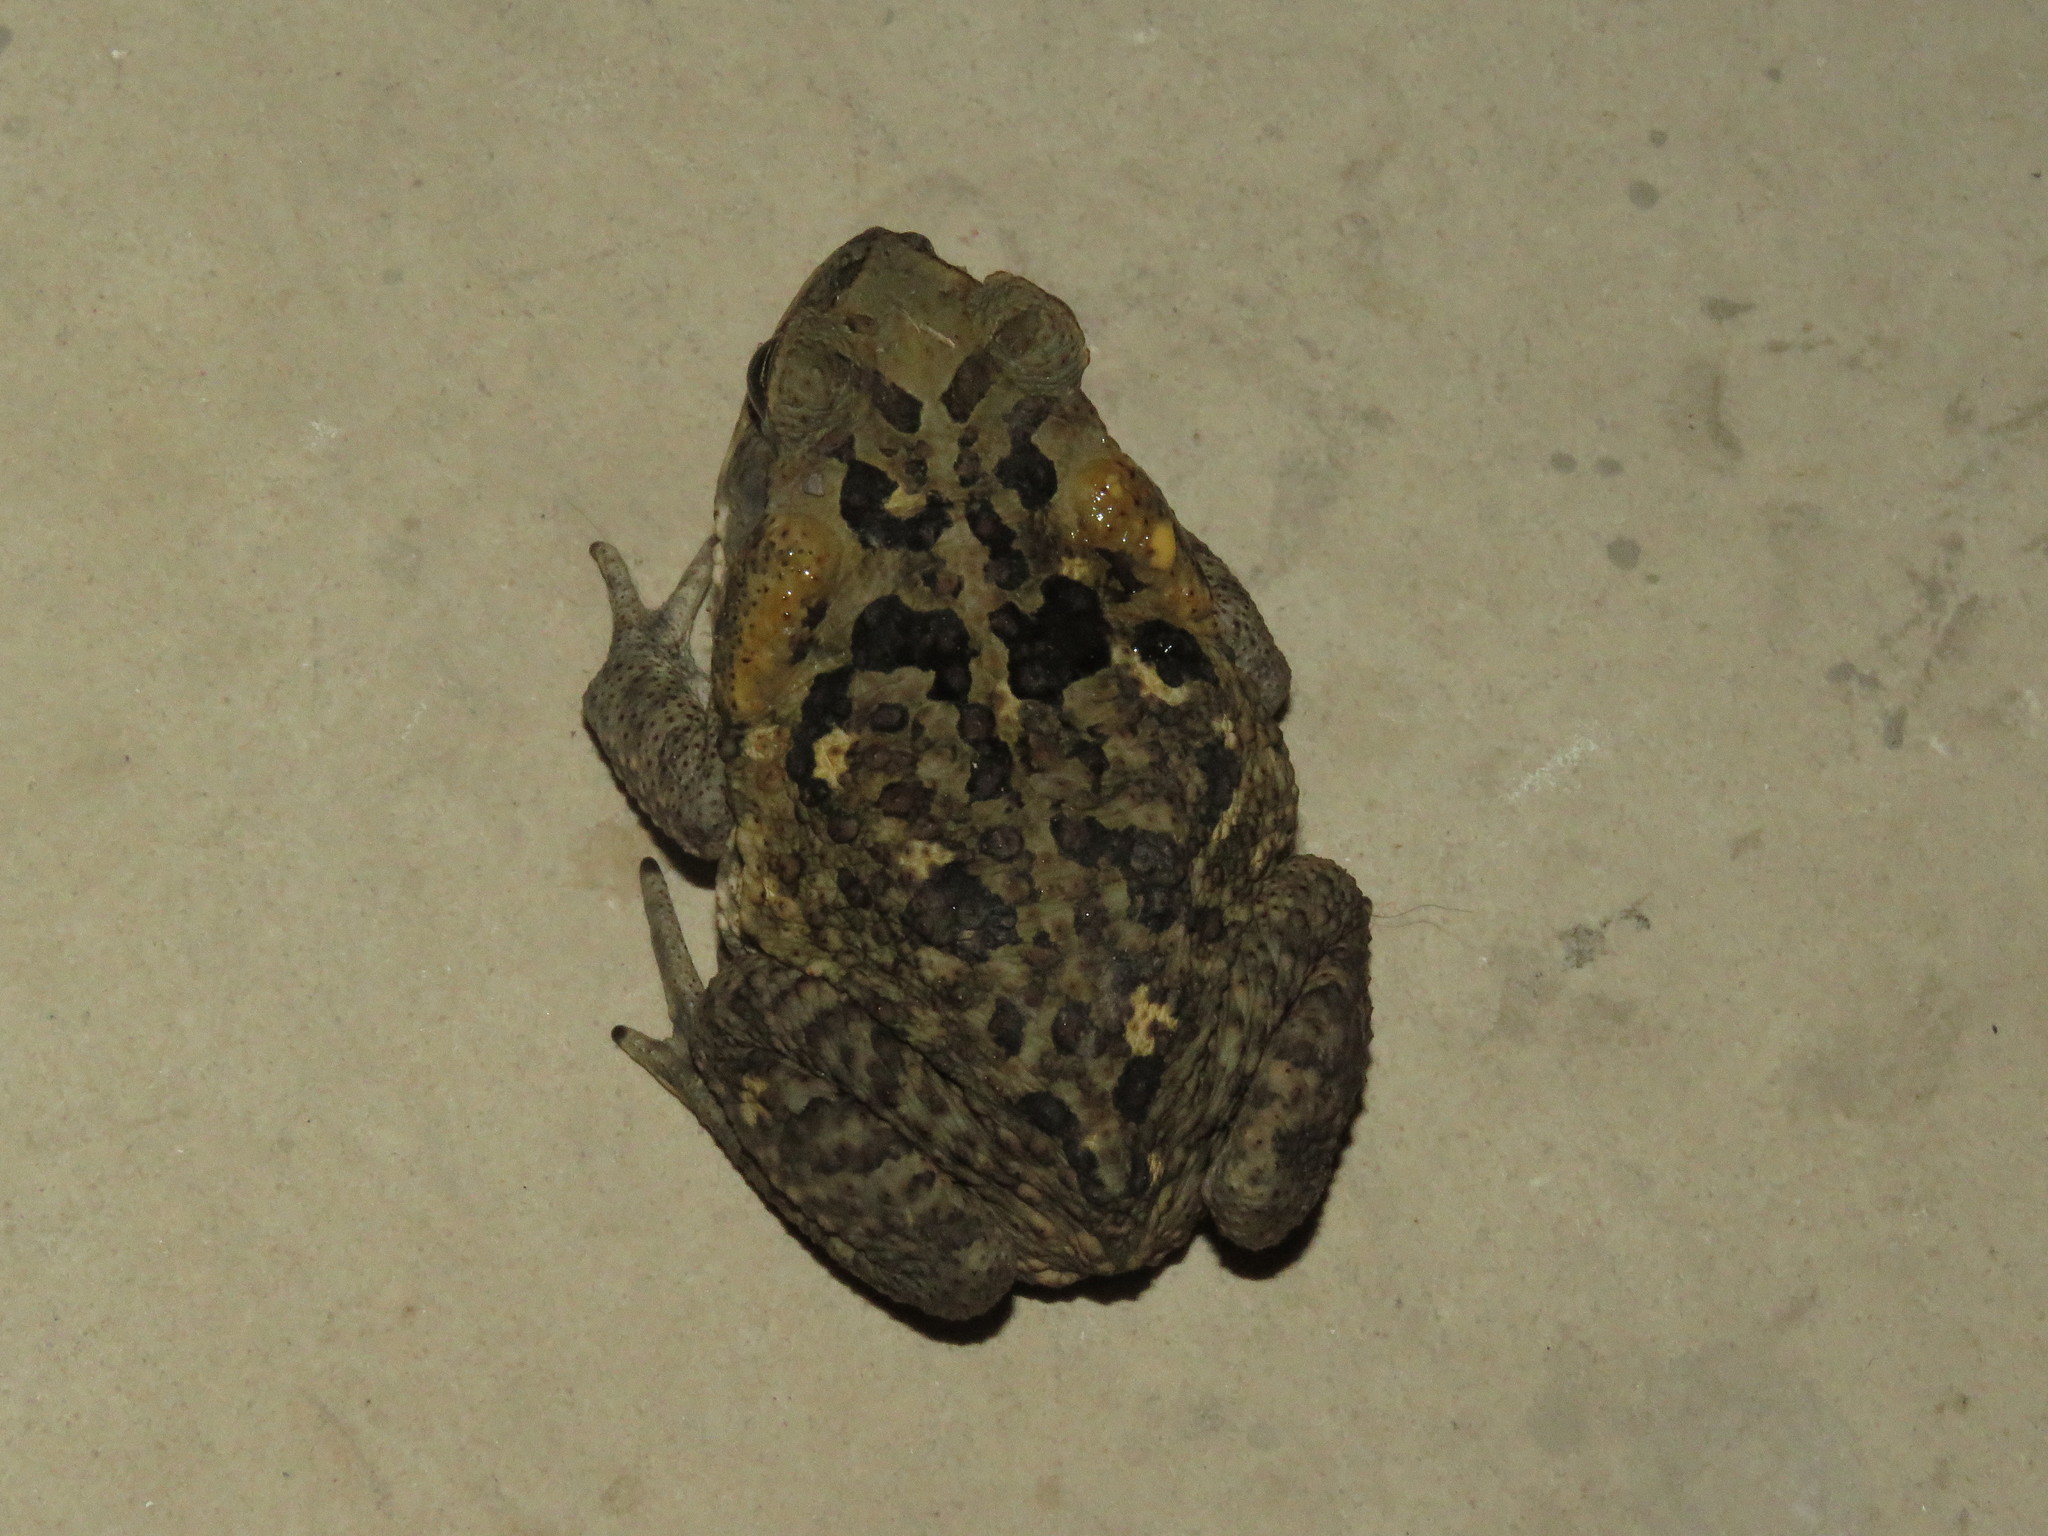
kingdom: Animalia
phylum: Chordata
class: Amphibia
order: Anura
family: Bufonidae
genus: Rhinella
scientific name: Rhinella horribilis
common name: Mesoamerican cane toad
